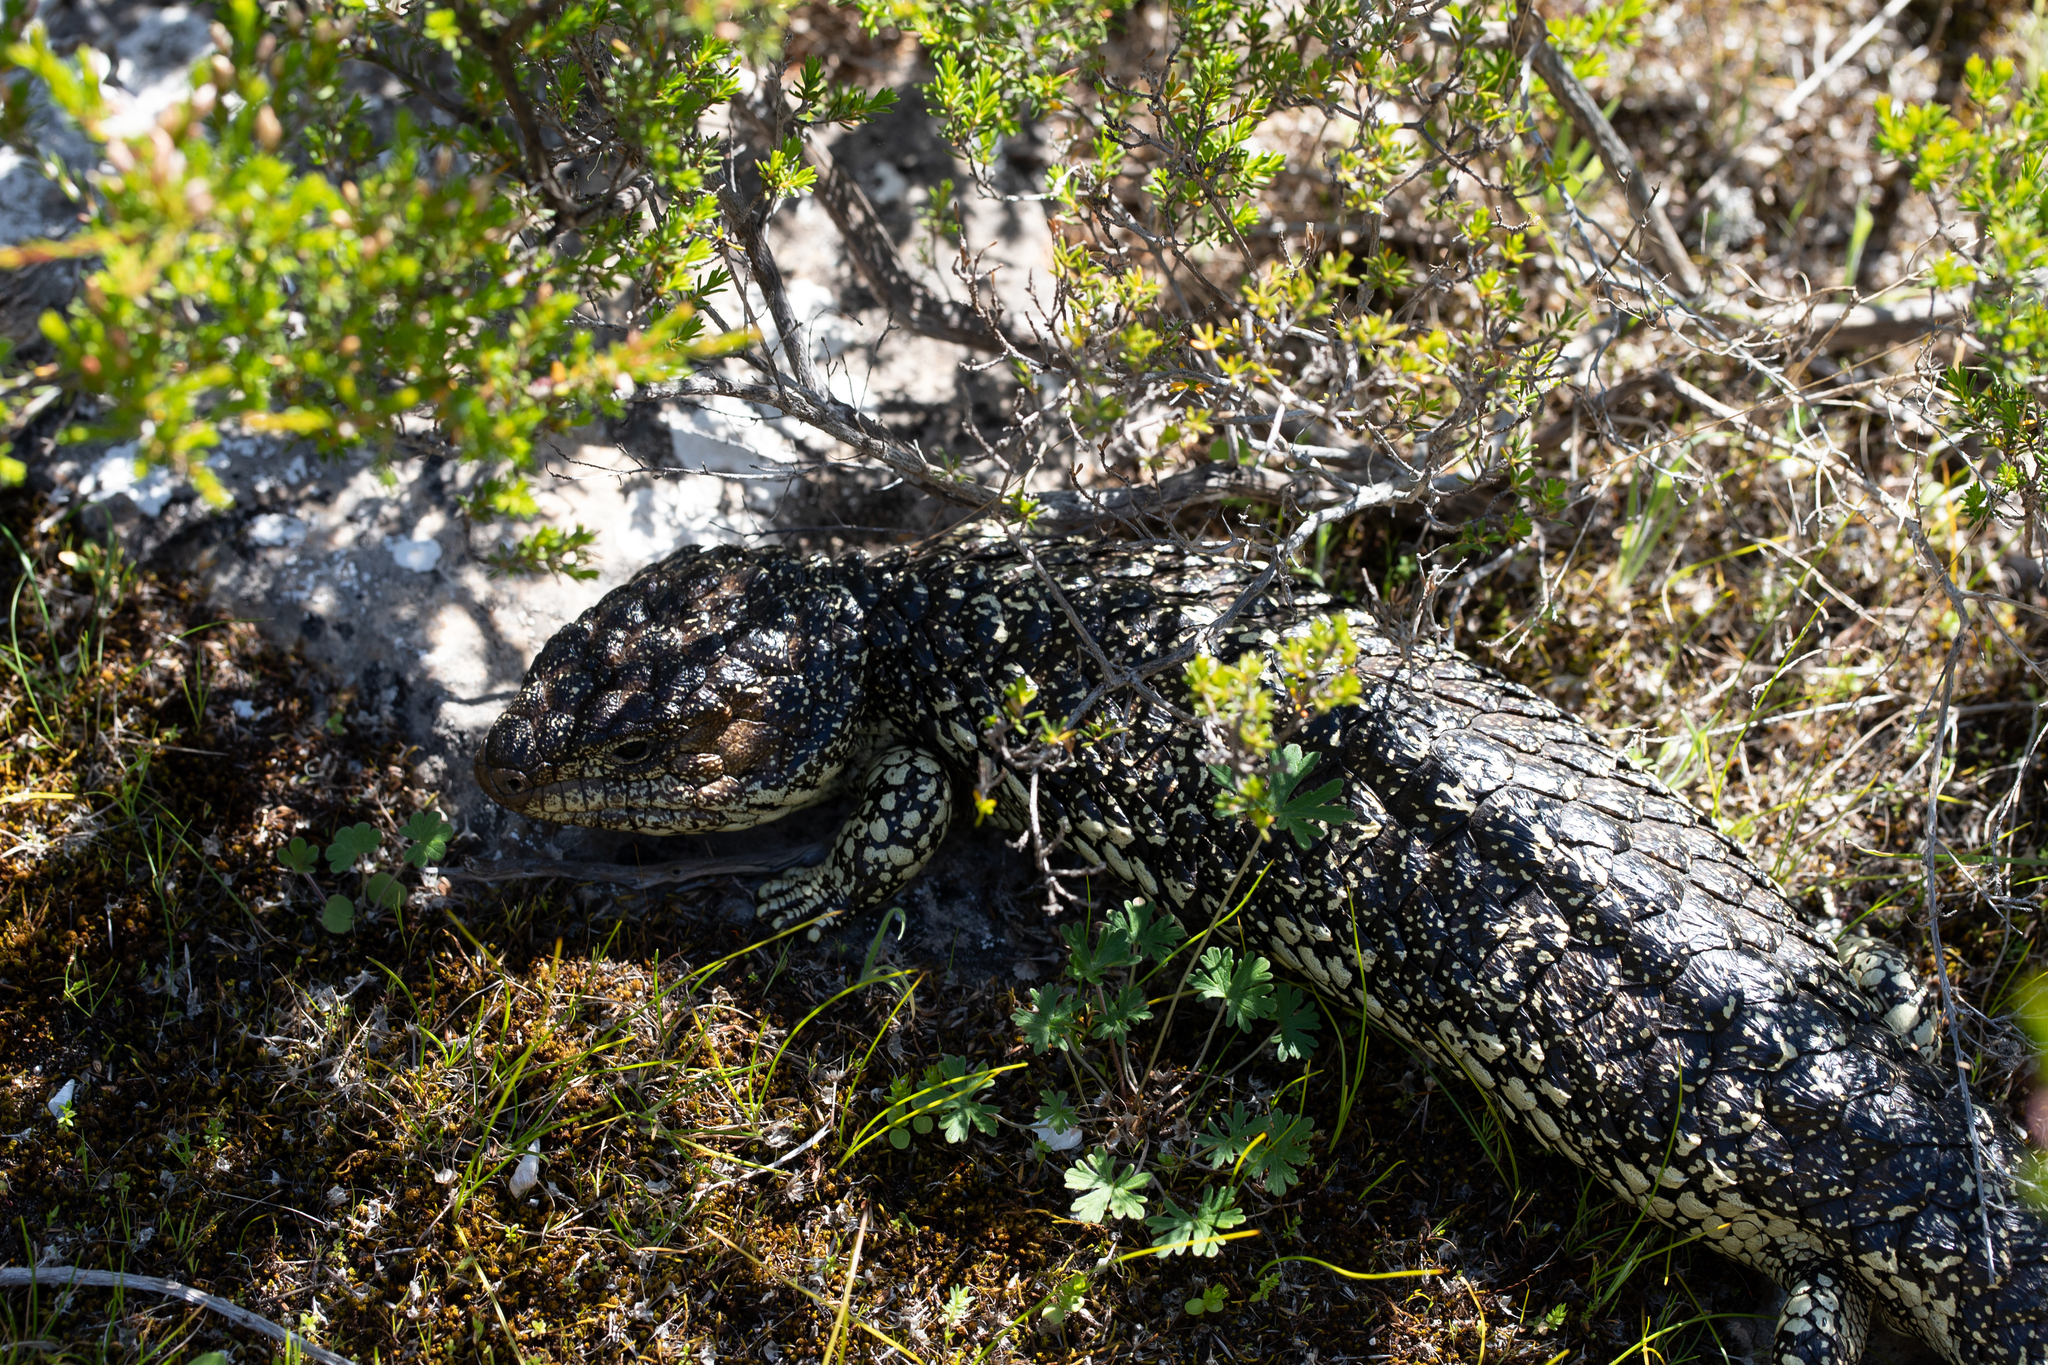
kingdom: Animalia
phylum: Chordata
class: Squamata
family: Scincidae
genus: Tiliqua
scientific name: Tiliqua rugosa
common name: Pinecone lizard
